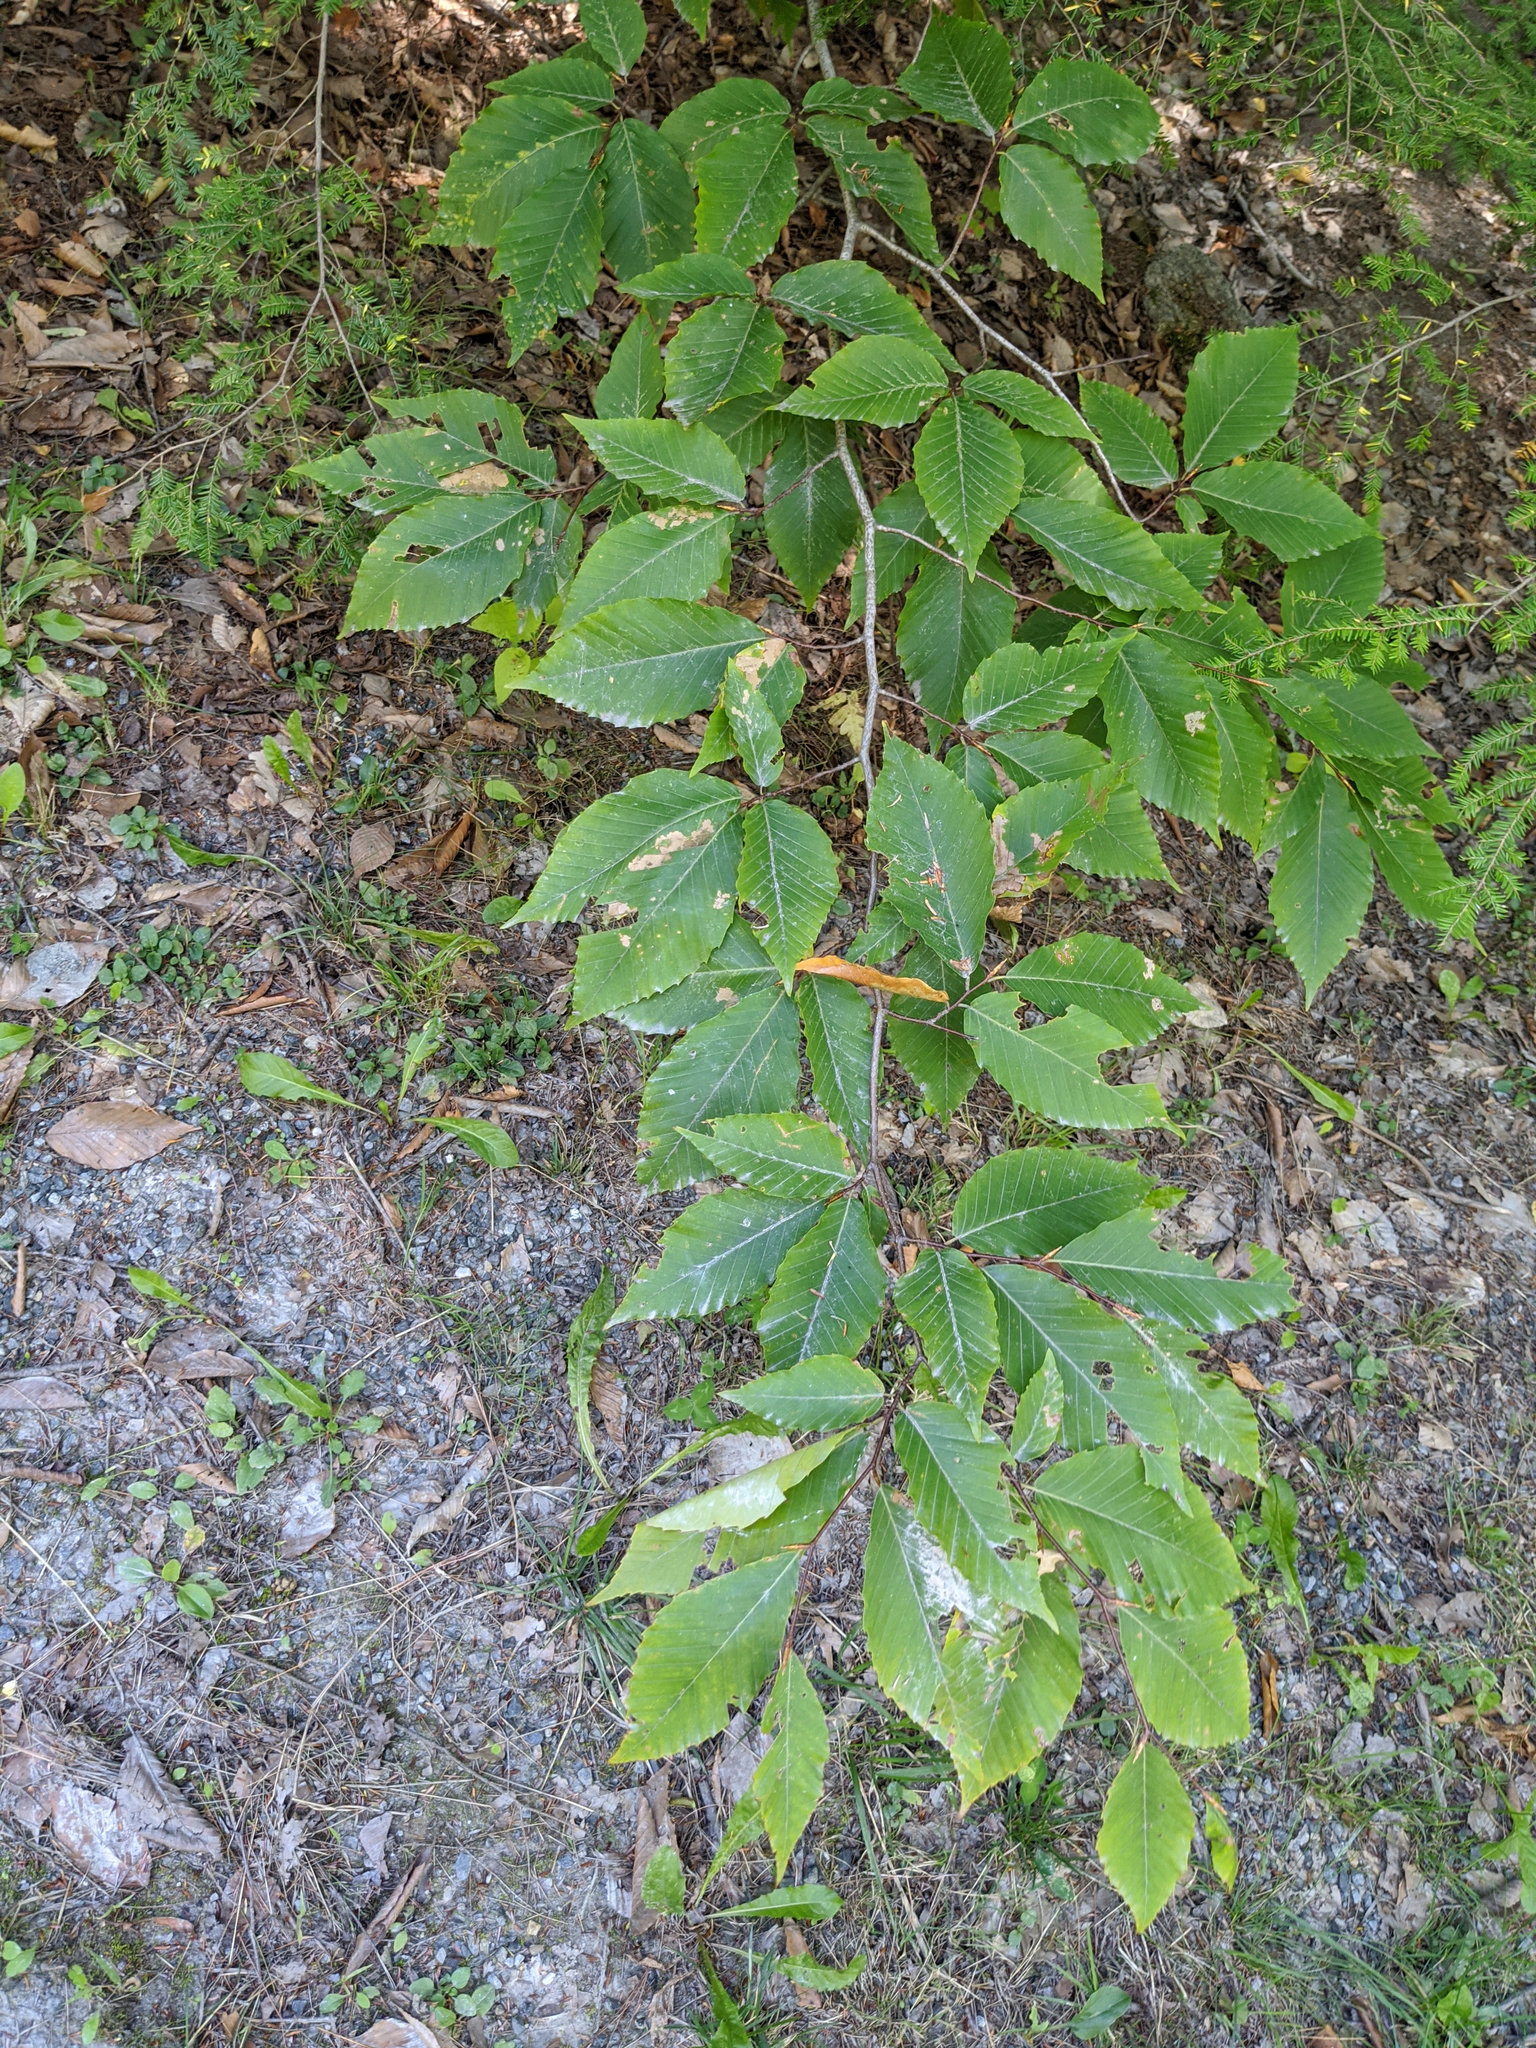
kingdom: Plantae
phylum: Tracheophyta
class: Magnoliopsida
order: Fagales
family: Fagaceae
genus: Fagus
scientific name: Fagus grandifolia
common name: American beech
